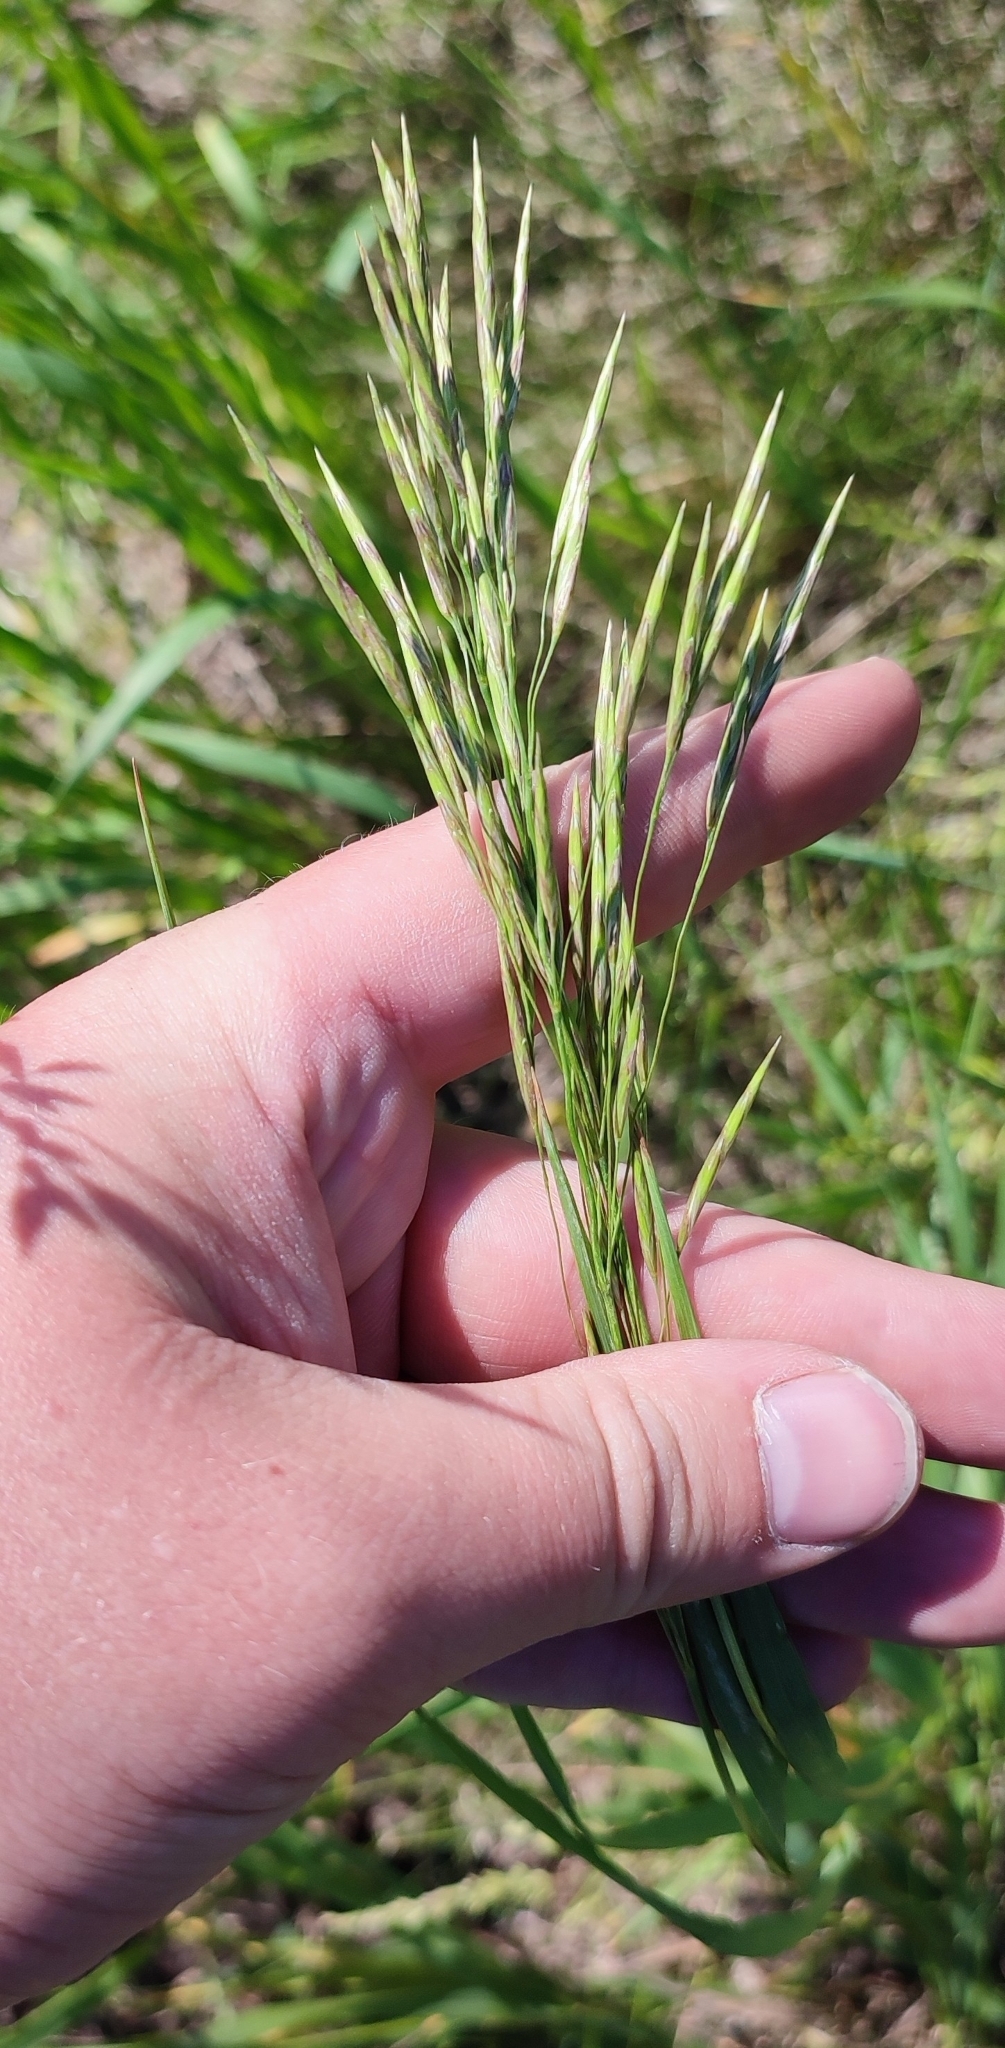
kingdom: Plantae
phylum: Tracheophyta
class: Liliopsida
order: Poales
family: Poaceae
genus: Bromus
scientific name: Bromus inermis
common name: Smooth brome
